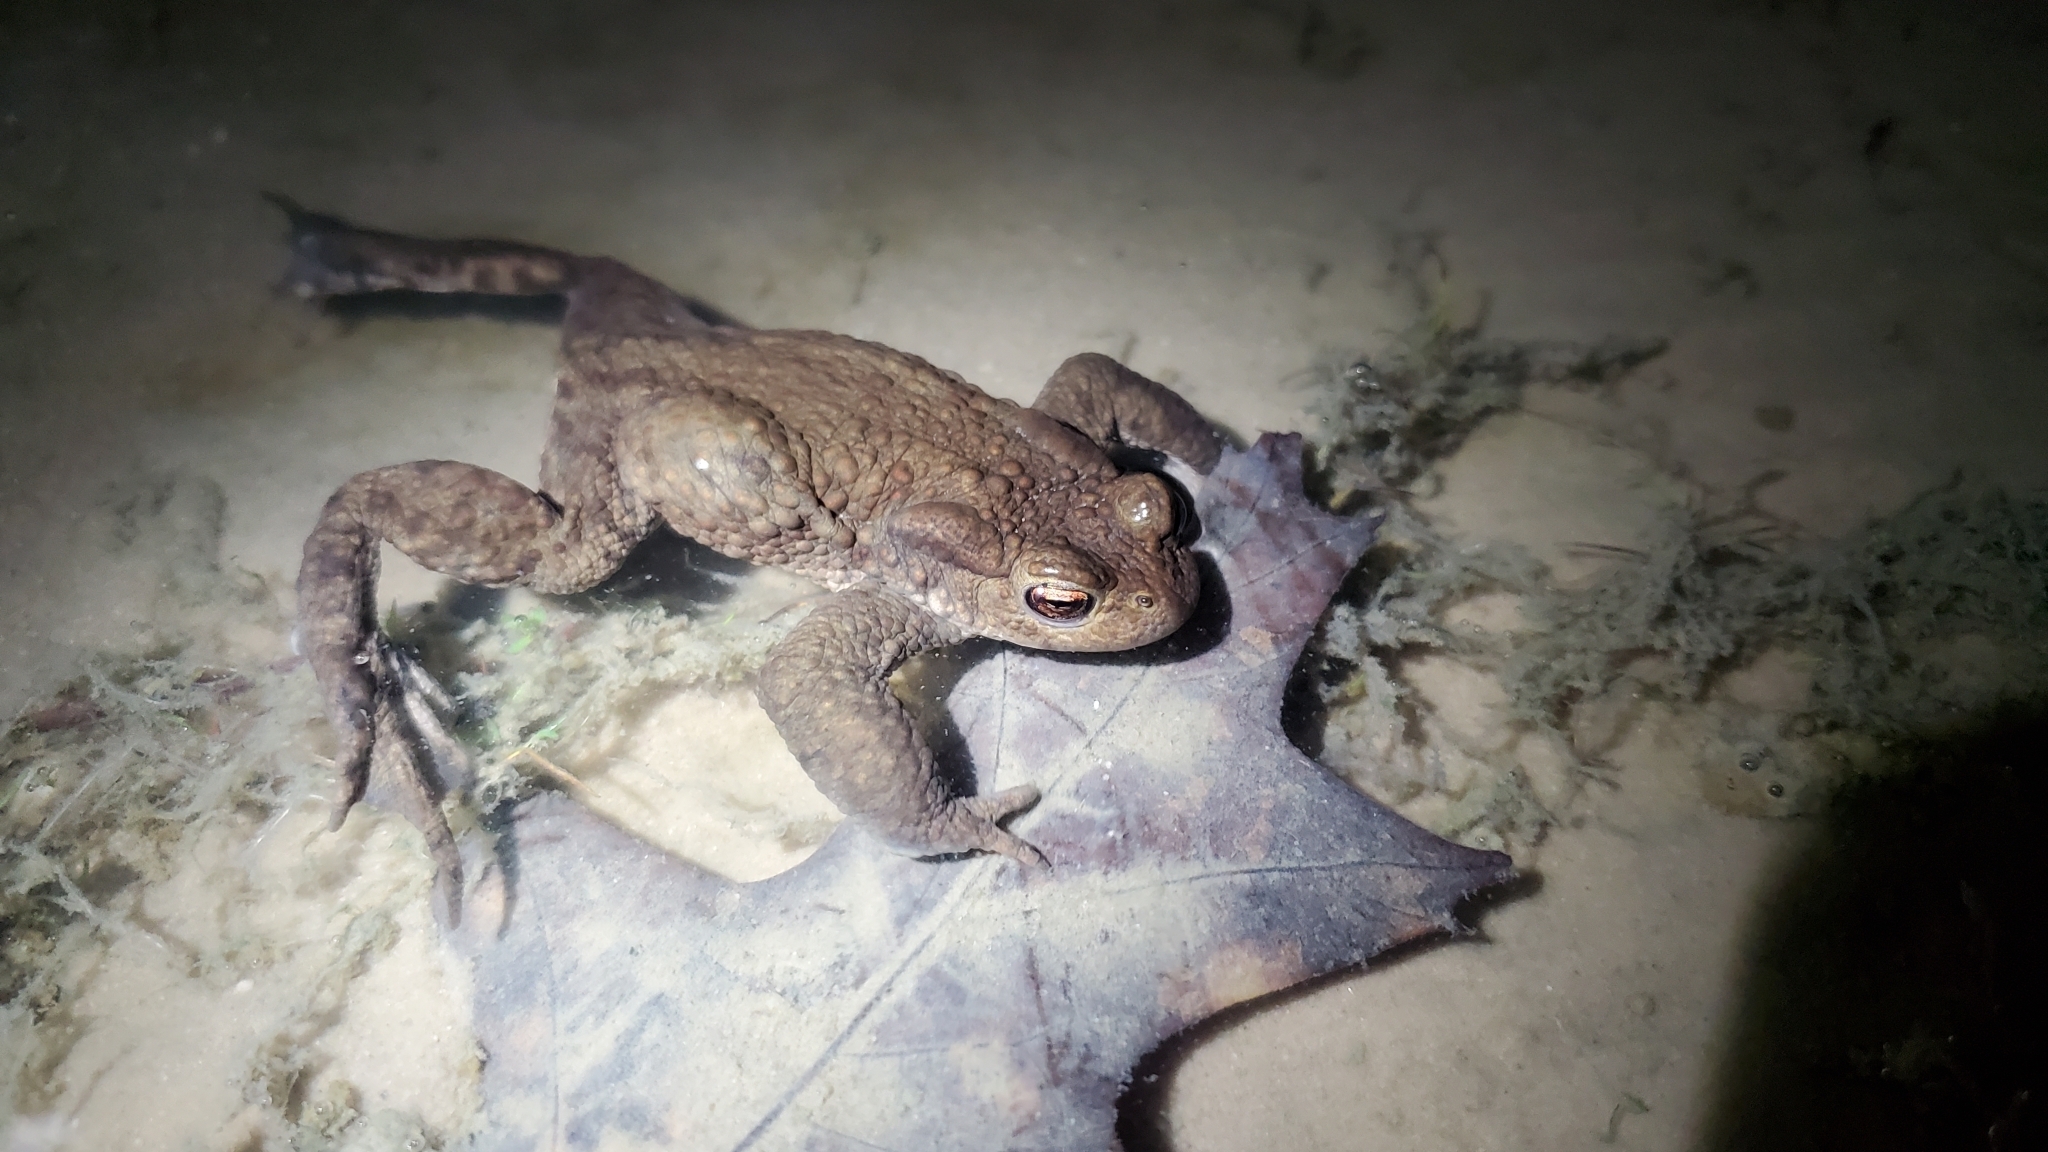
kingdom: Animalia
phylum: Chordata
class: Amphibia
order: Anura
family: Bufonidae
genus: Bufo
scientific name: Bufo bufo
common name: Common toad
